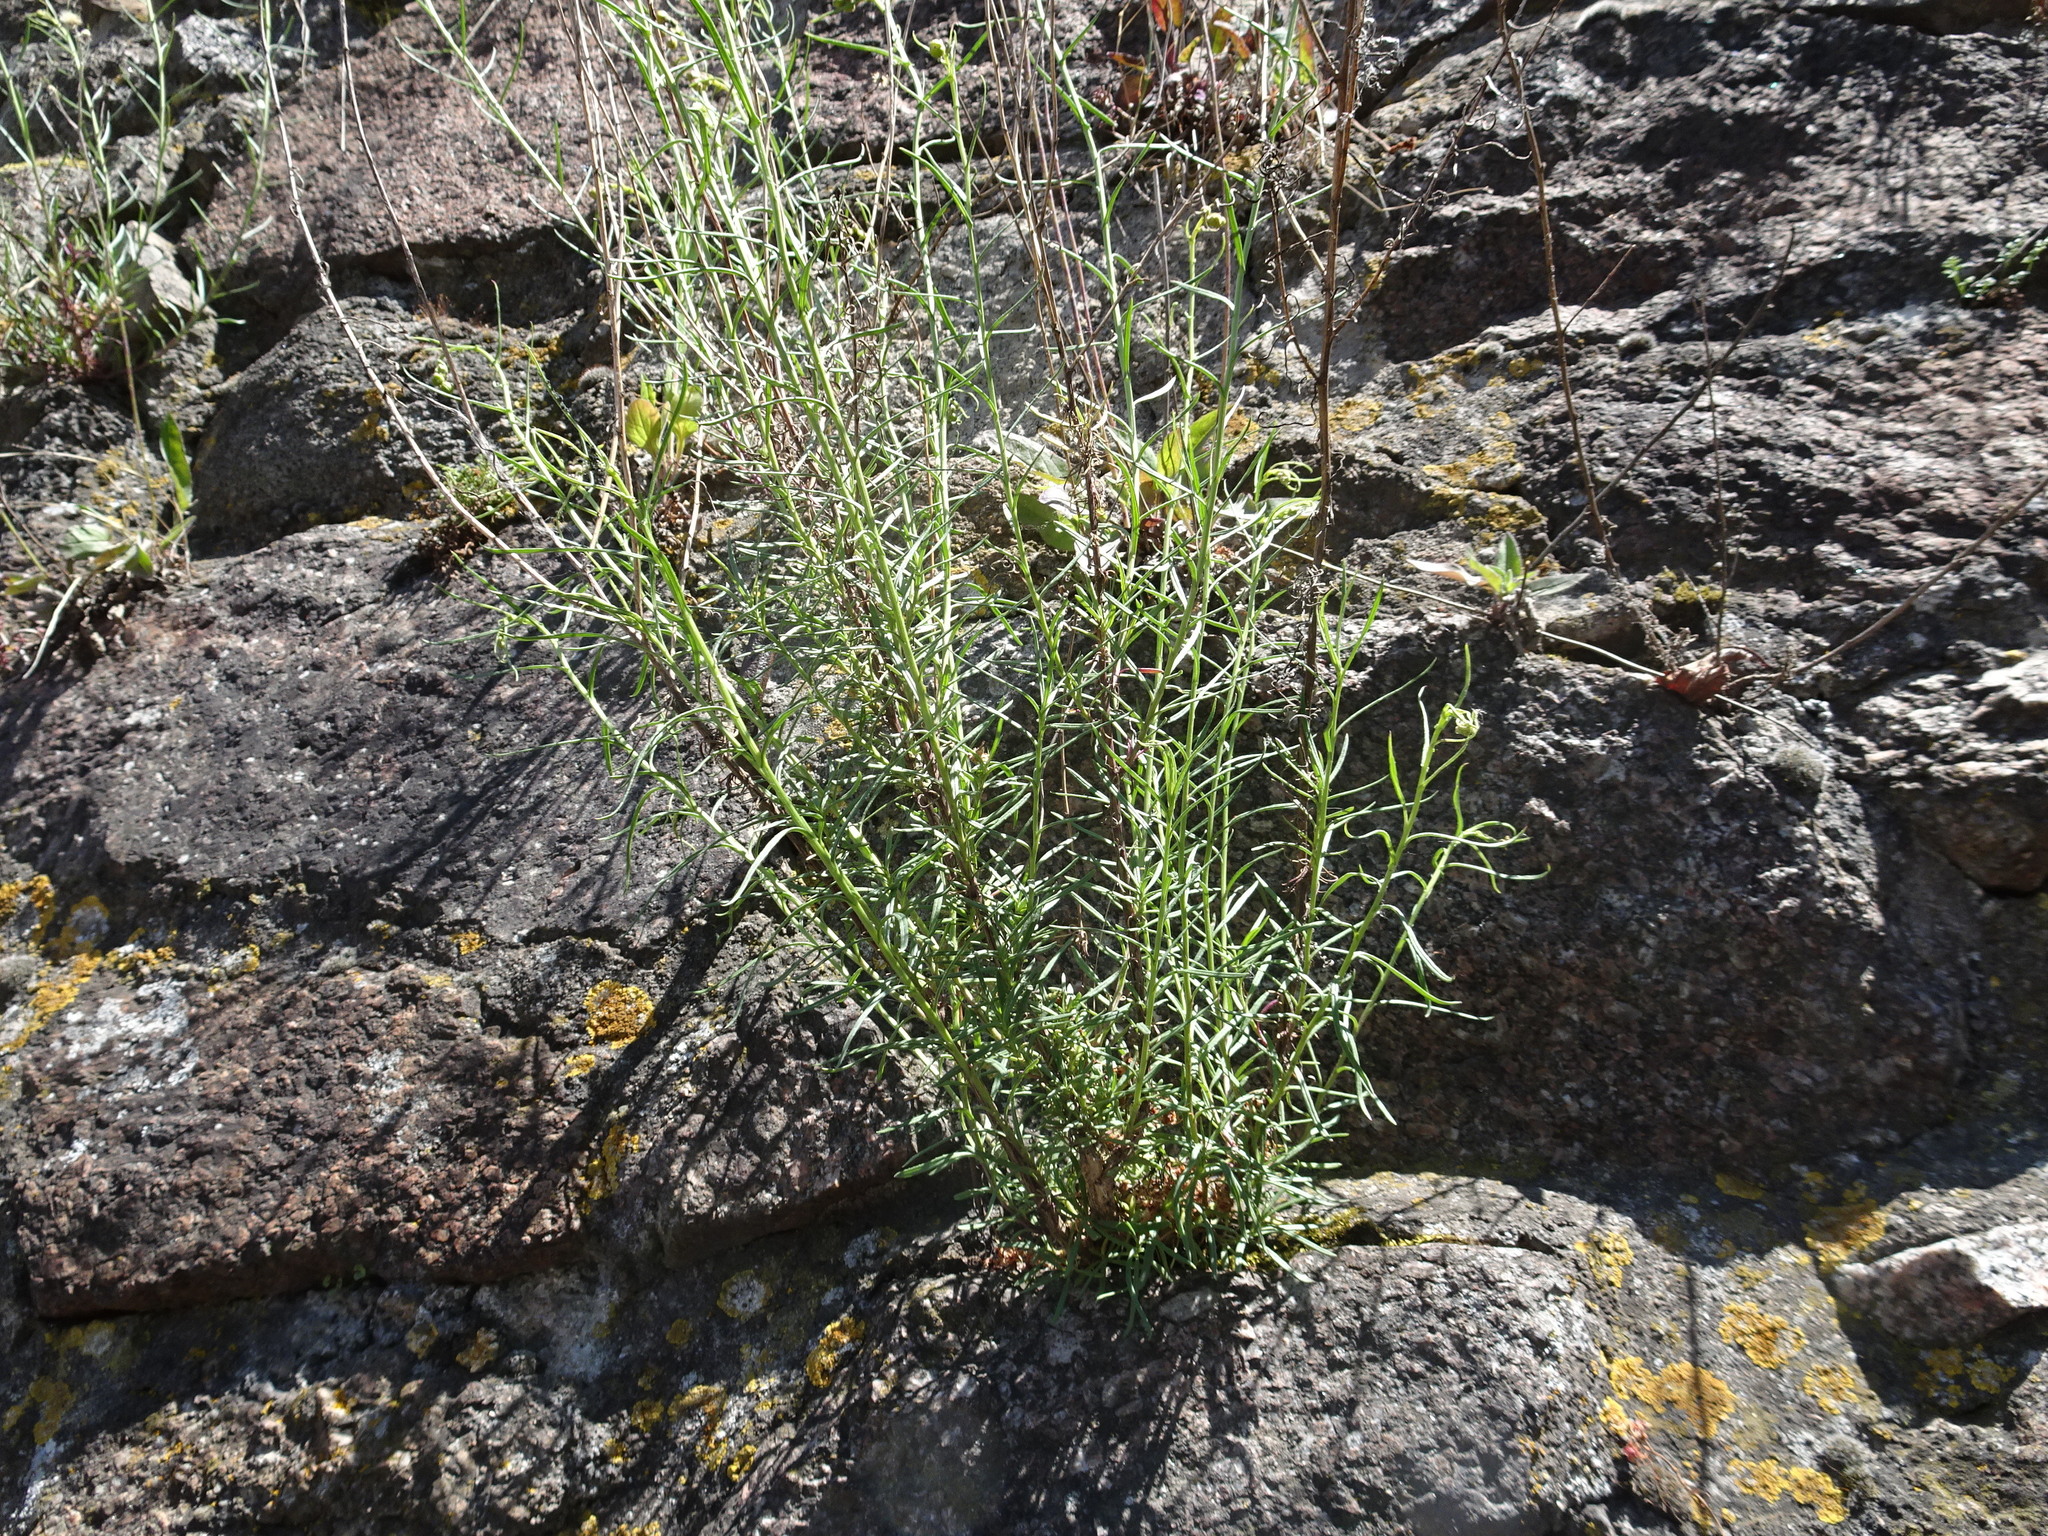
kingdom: Plantae
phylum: Tracheophyta
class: Magnoliopsida
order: Asterales
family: Asteraceae
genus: Senecio
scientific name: Senecio inaequidens
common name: Narrow-leaved ragwort
